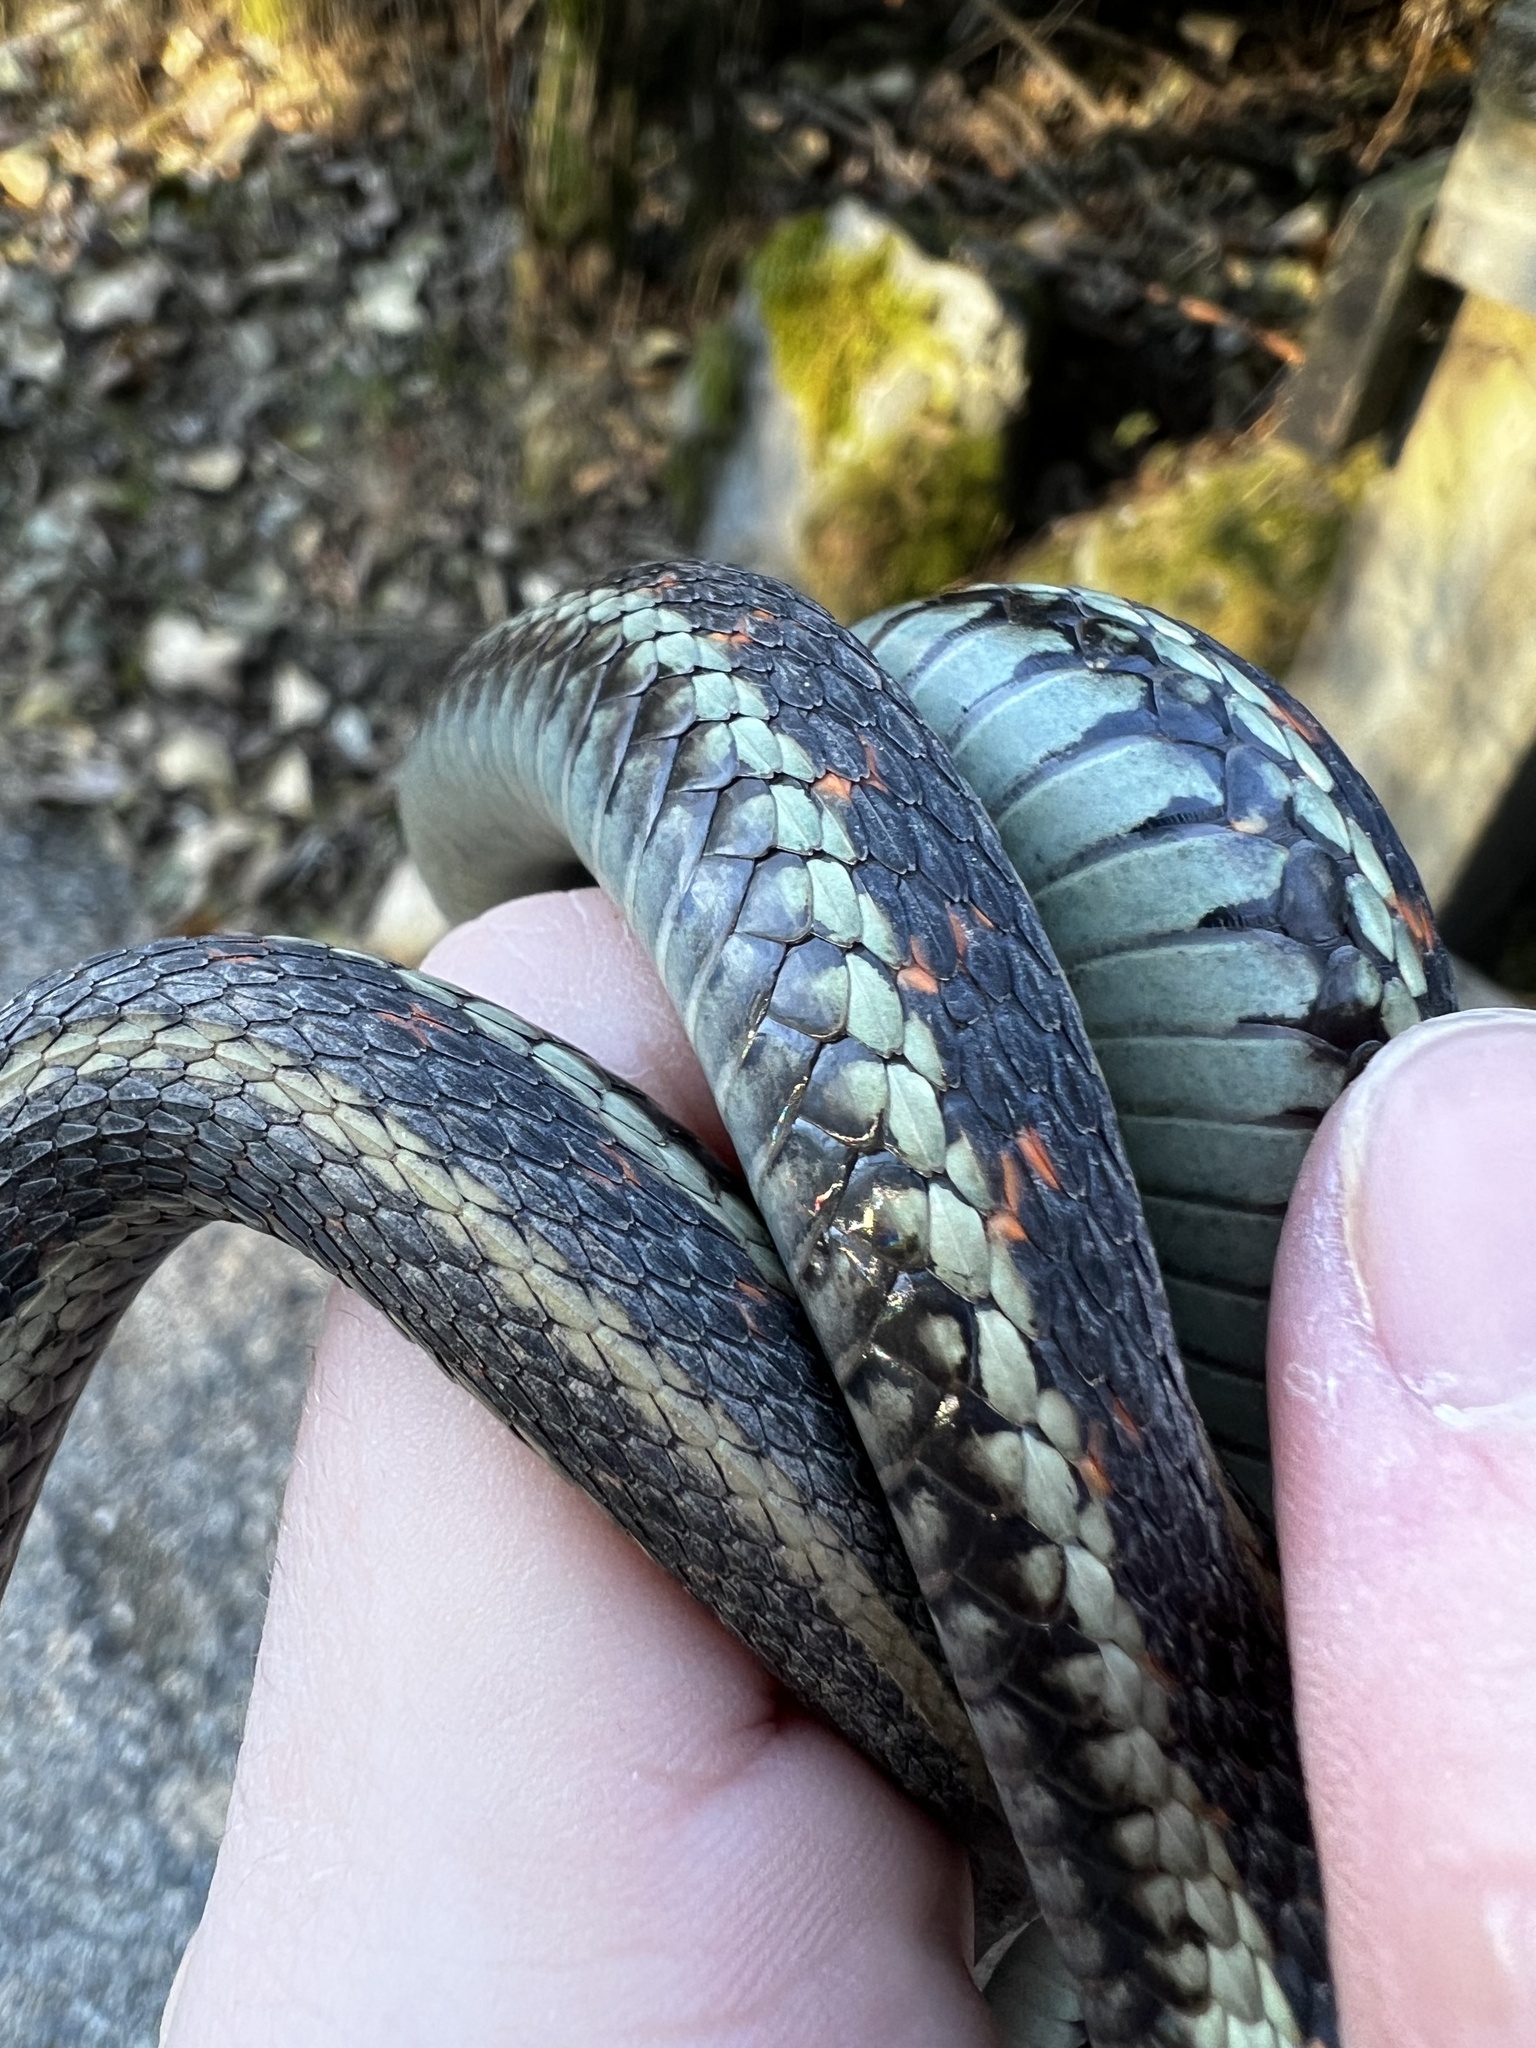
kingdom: Animalia
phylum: Chordata
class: Squamata
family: Colubridae
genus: Thamnophis
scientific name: Thamnophis sirtalis
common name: Common garter snake
